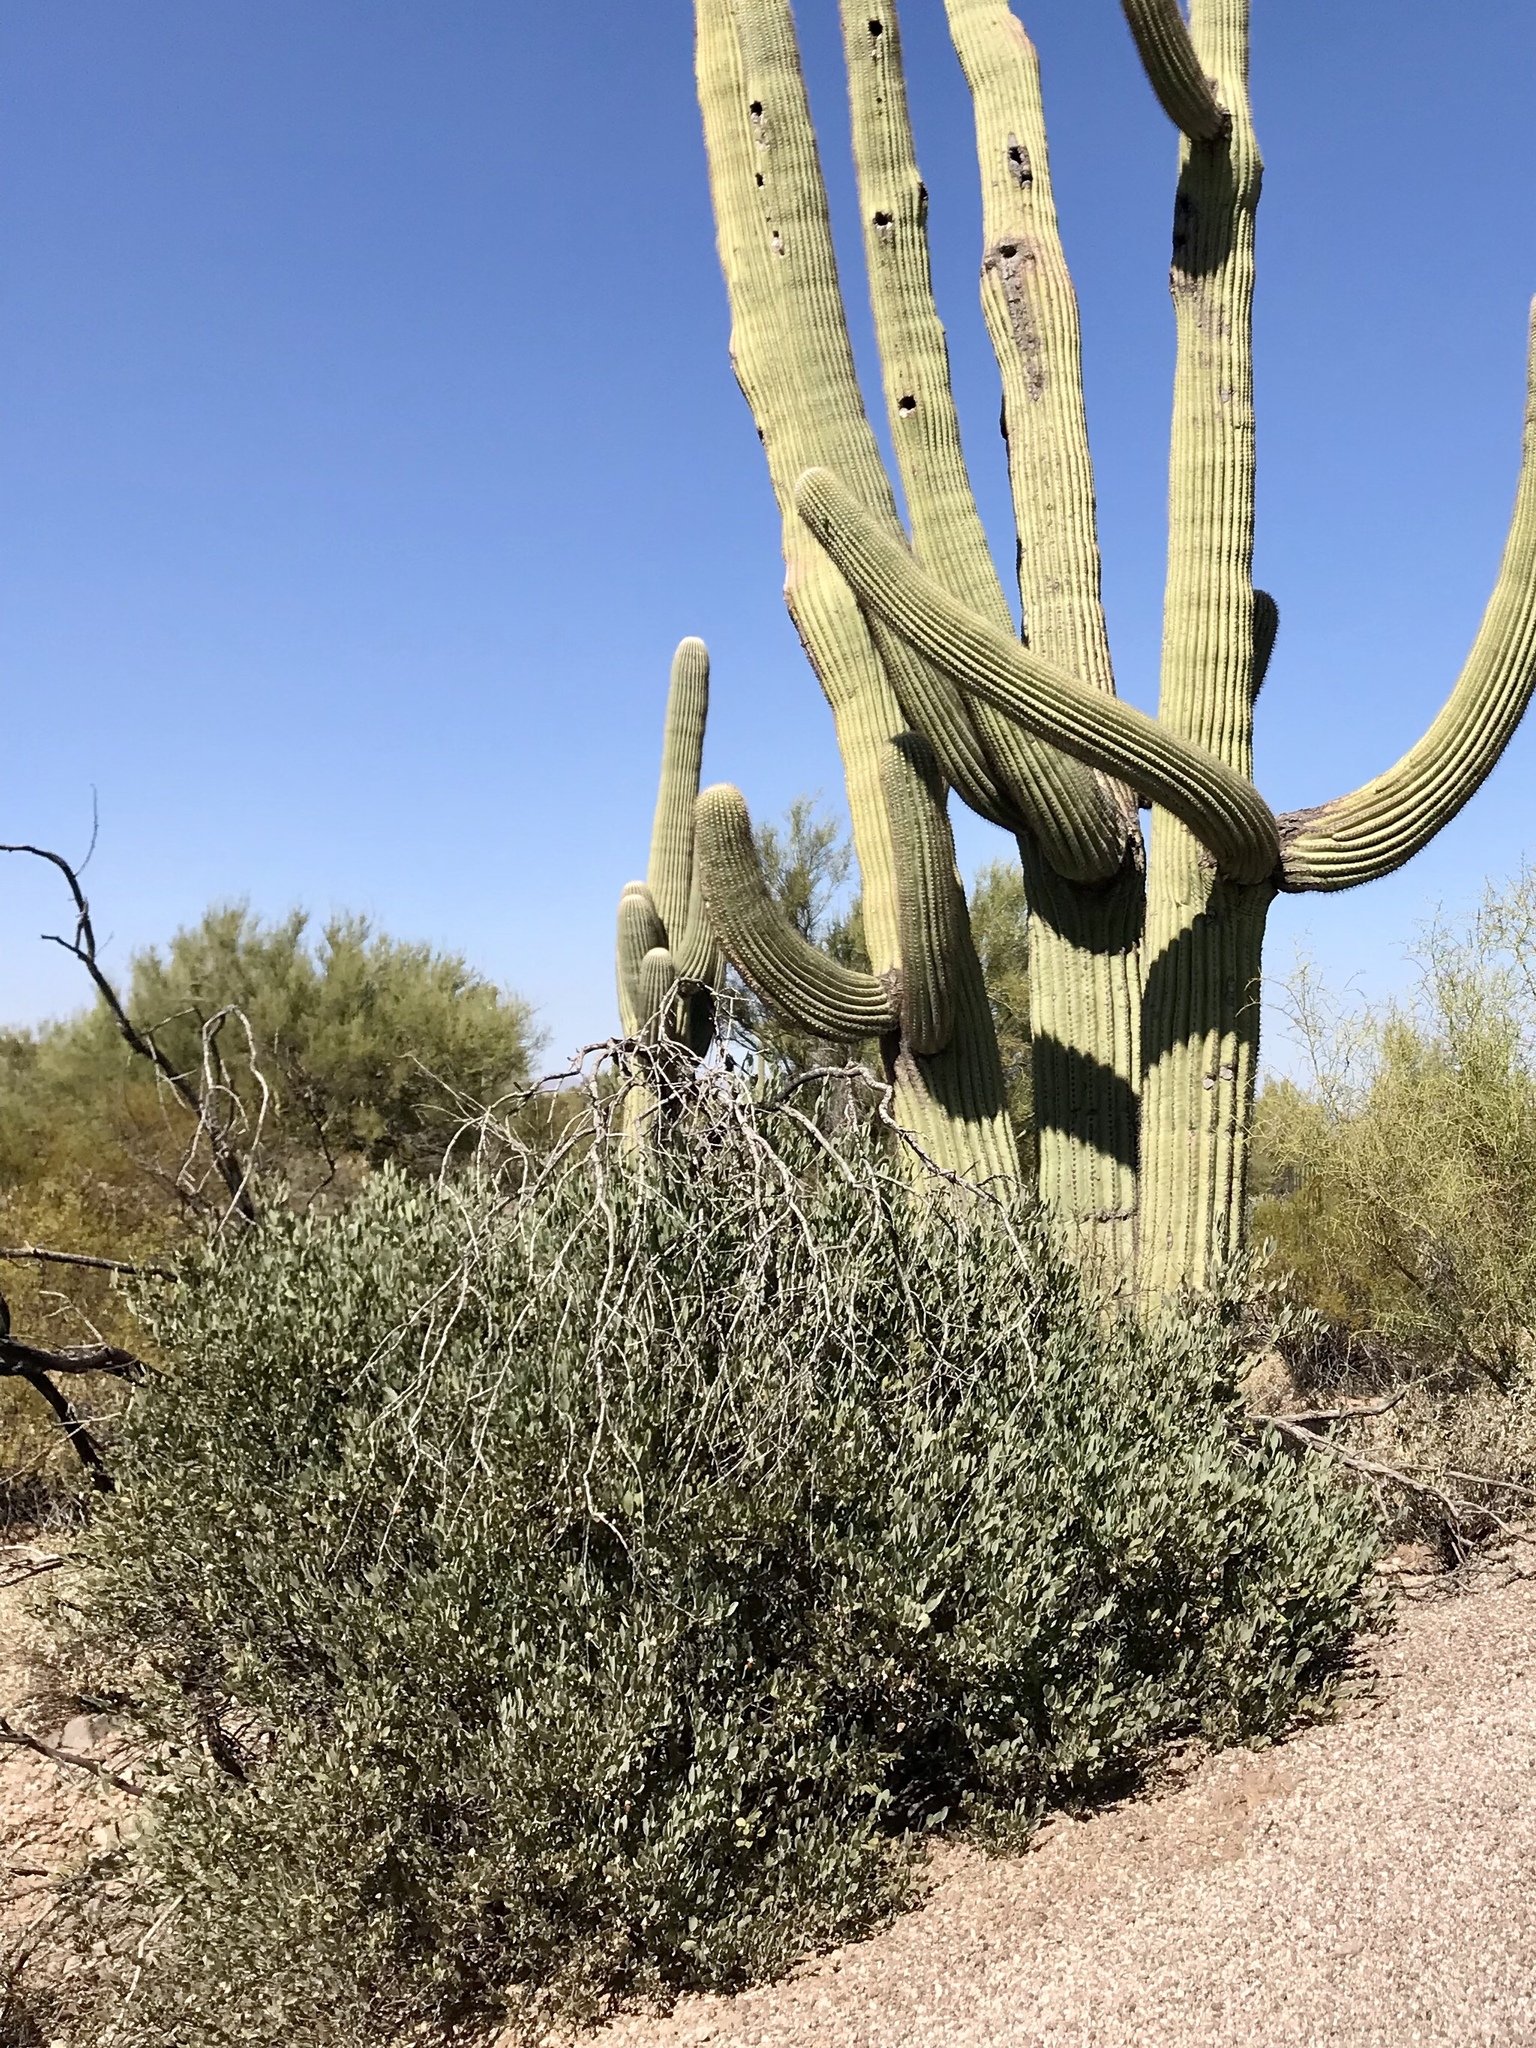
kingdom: Plantae
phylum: Tracheophyta
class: Magnoliopsida
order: Caryophyllales
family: Simmondsiaceae
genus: Simmondsia
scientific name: Simmondsia chinensis
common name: Jojoba
